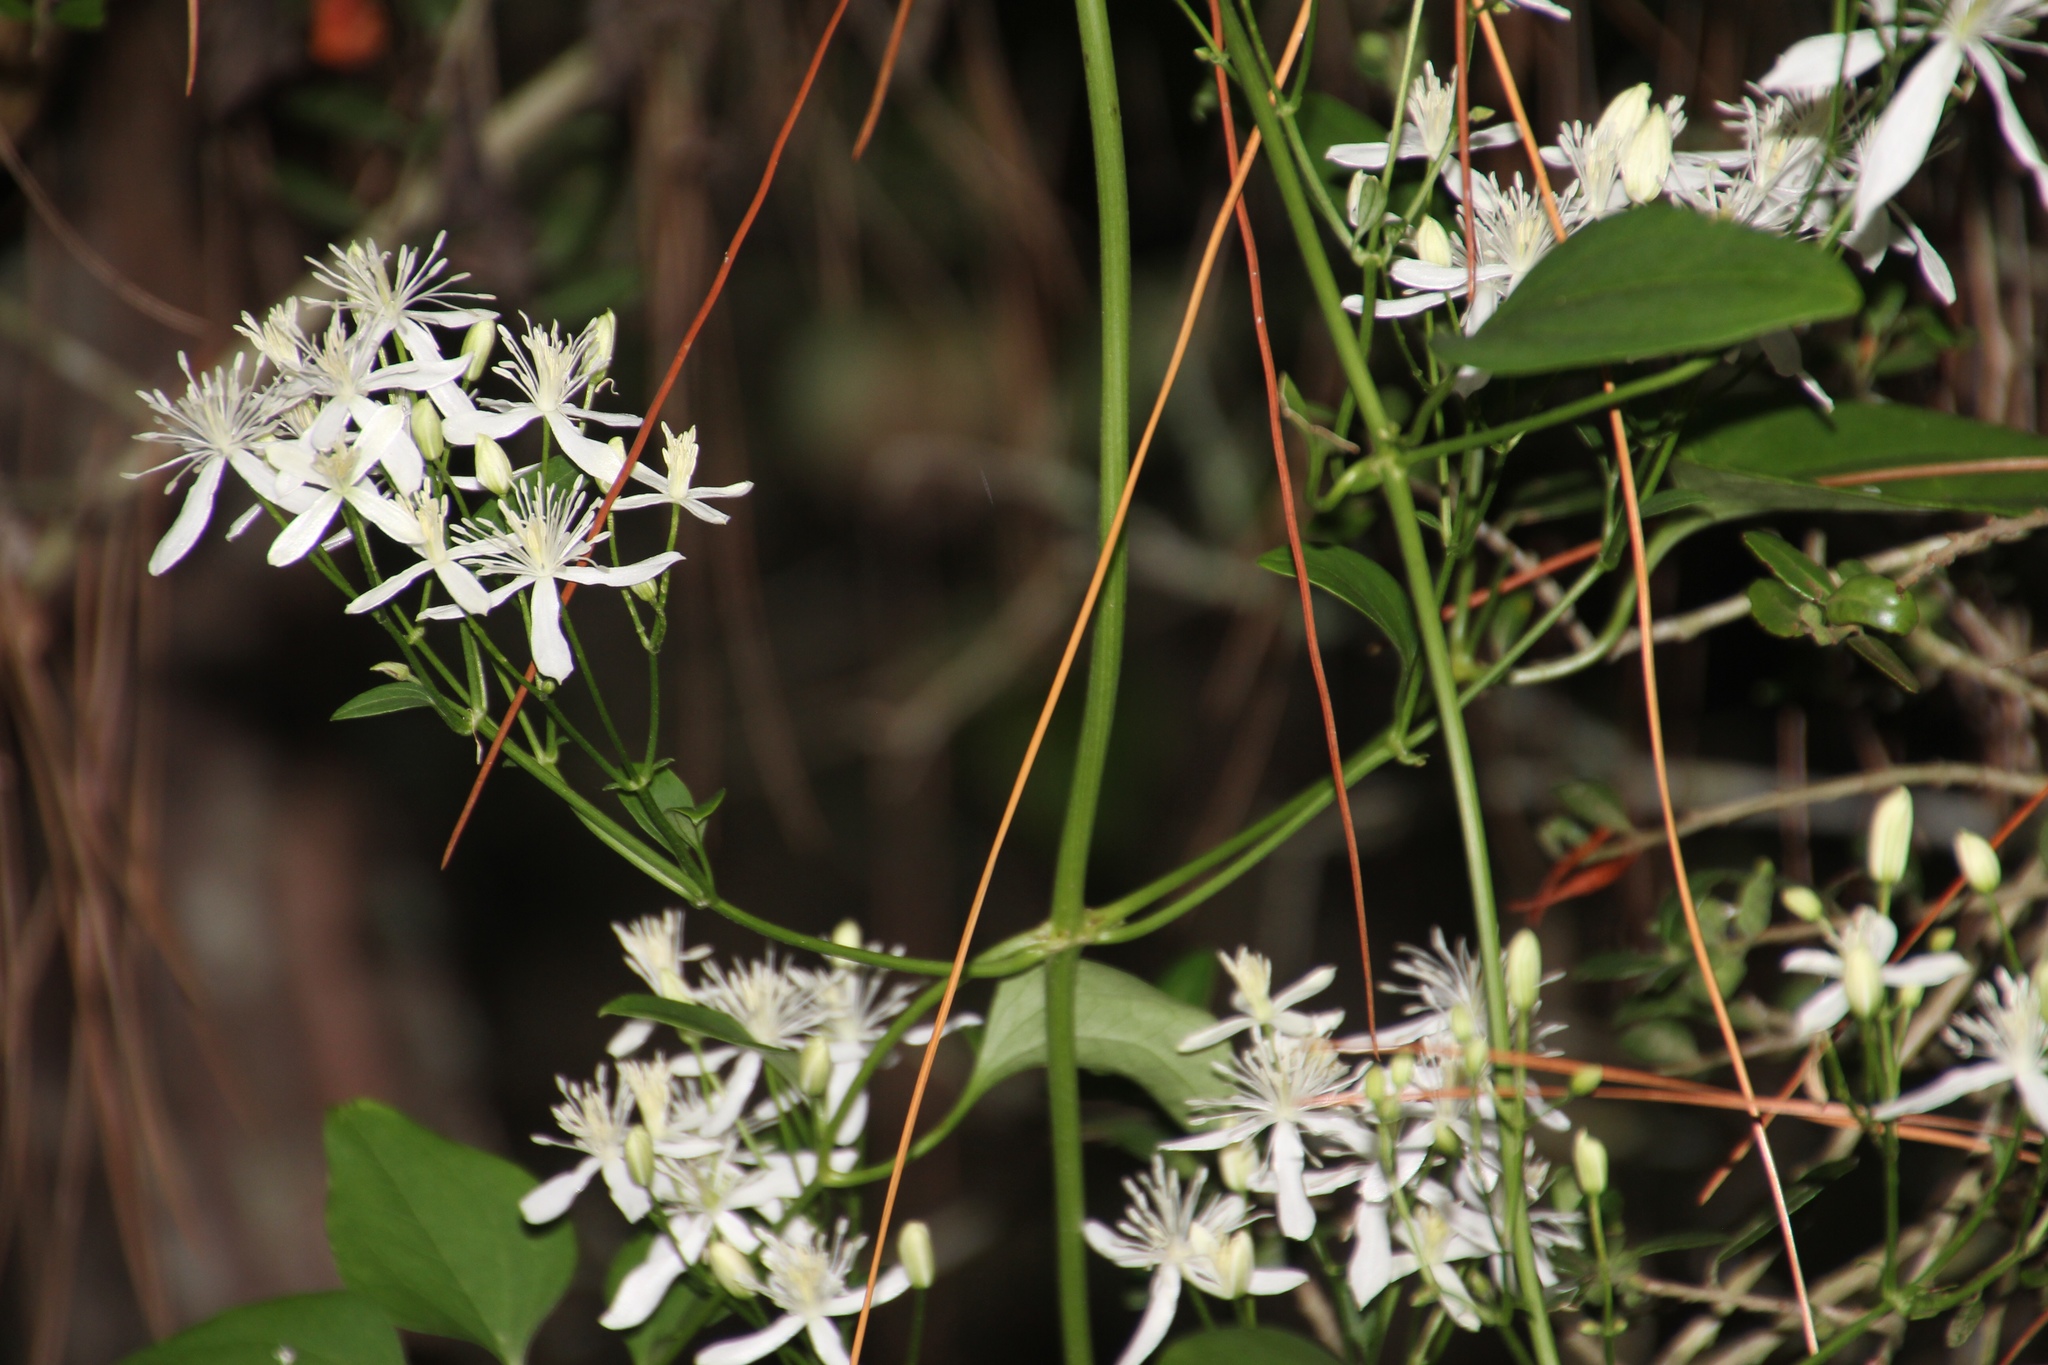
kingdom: Plantae
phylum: Tracheophyta
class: Magnoliopsida
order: Ranunculales
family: Ranunculaceae
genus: Clematis
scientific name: Clematis terniflora
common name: Sweet autumn clematis
